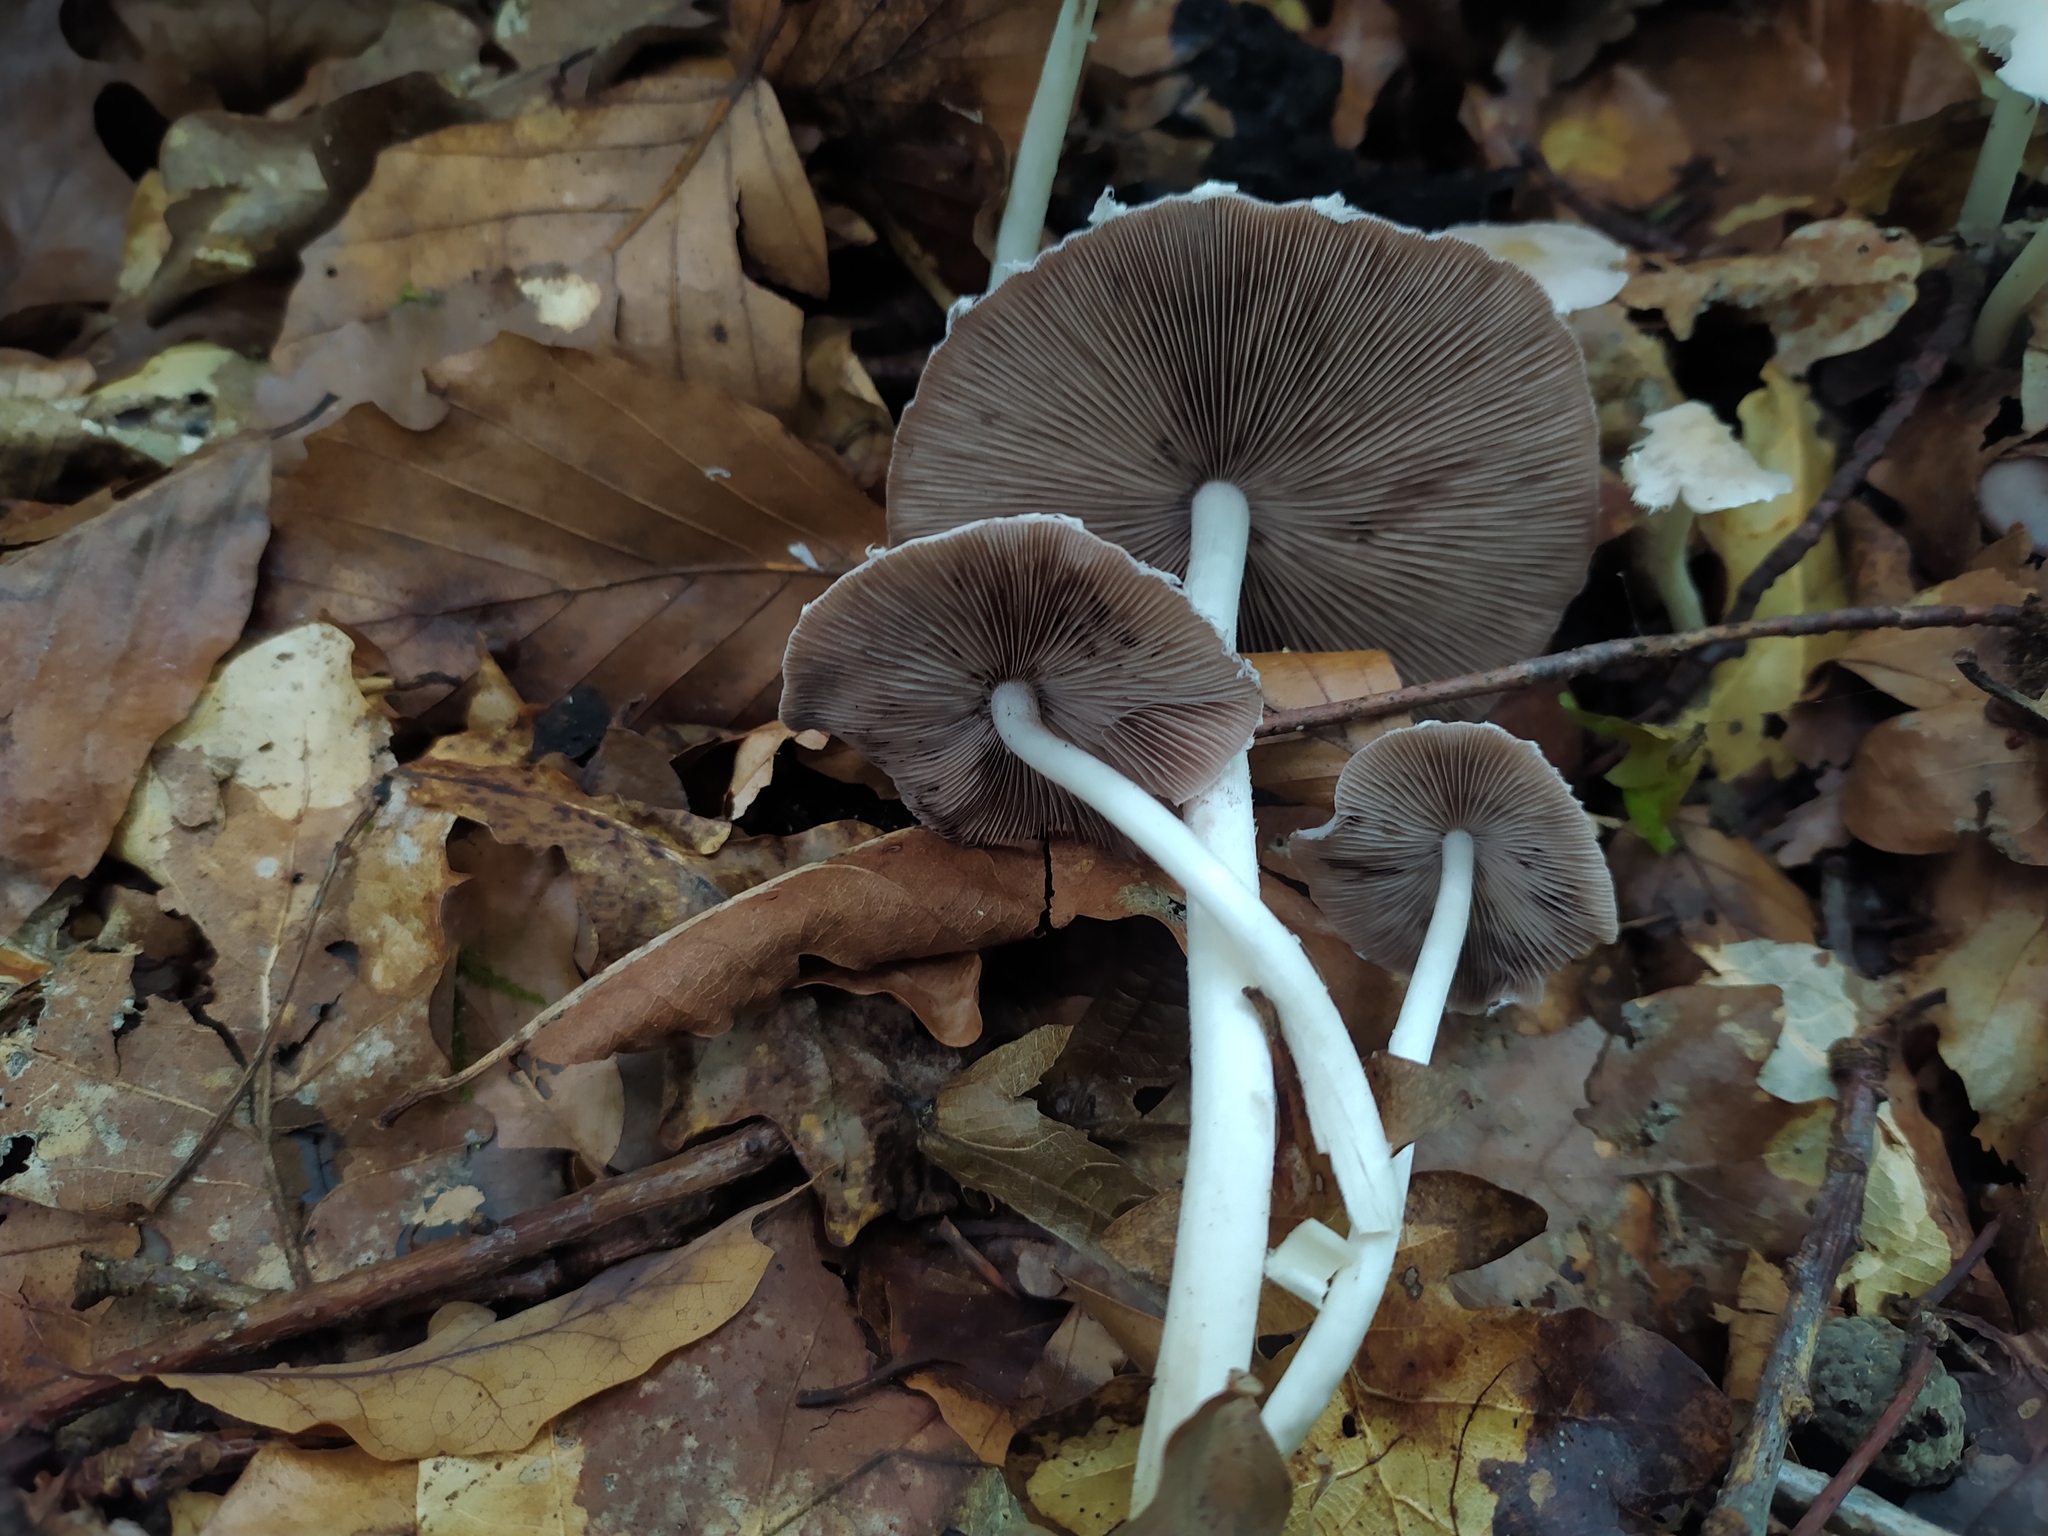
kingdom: Fungi
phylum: Basidiomycota
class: Agaricomycetes
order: Agaricales
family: Psathyrellaceae
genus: Candolleomyces
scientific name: Candolleomyces candolleanus
